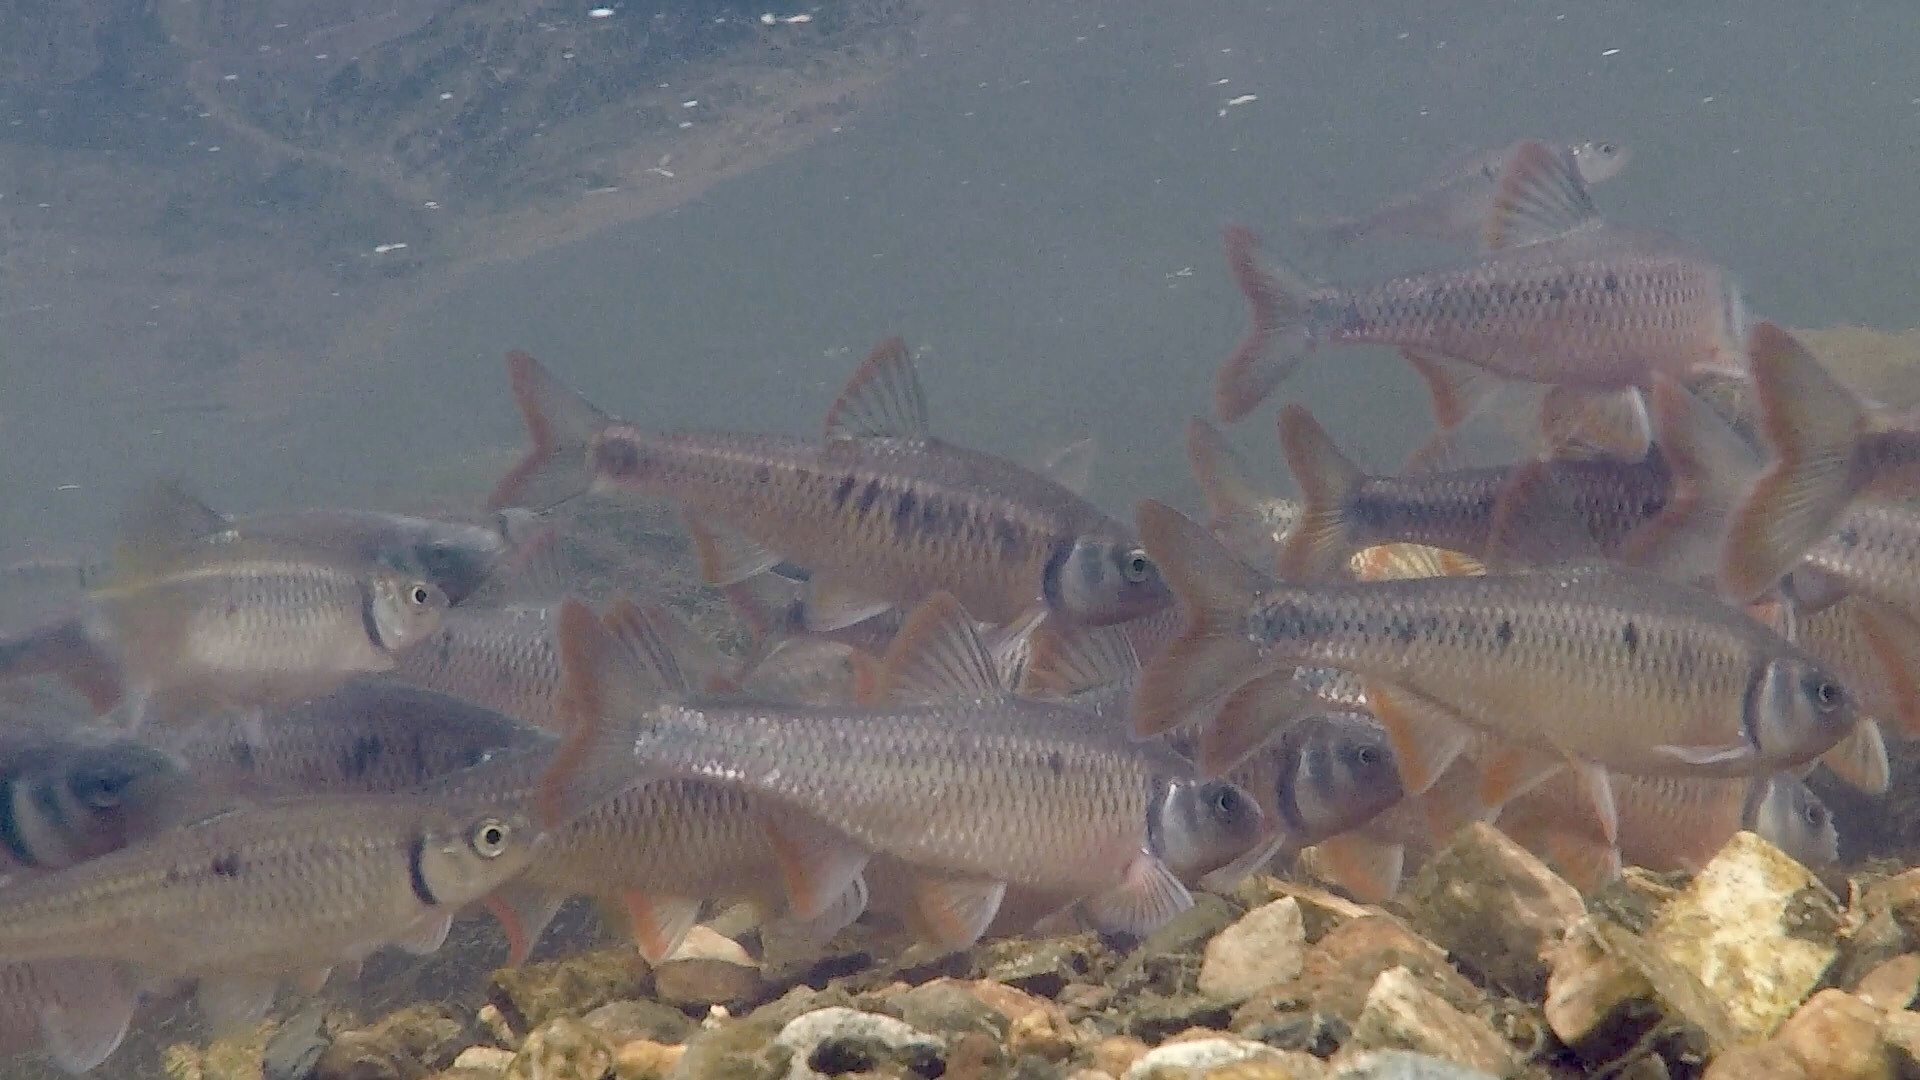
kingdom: Animalia
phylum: Chordata
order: Cypriniformes
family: Cyprinidae
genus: Luxilus
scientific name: Luxilus albeolus
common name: White shiner
